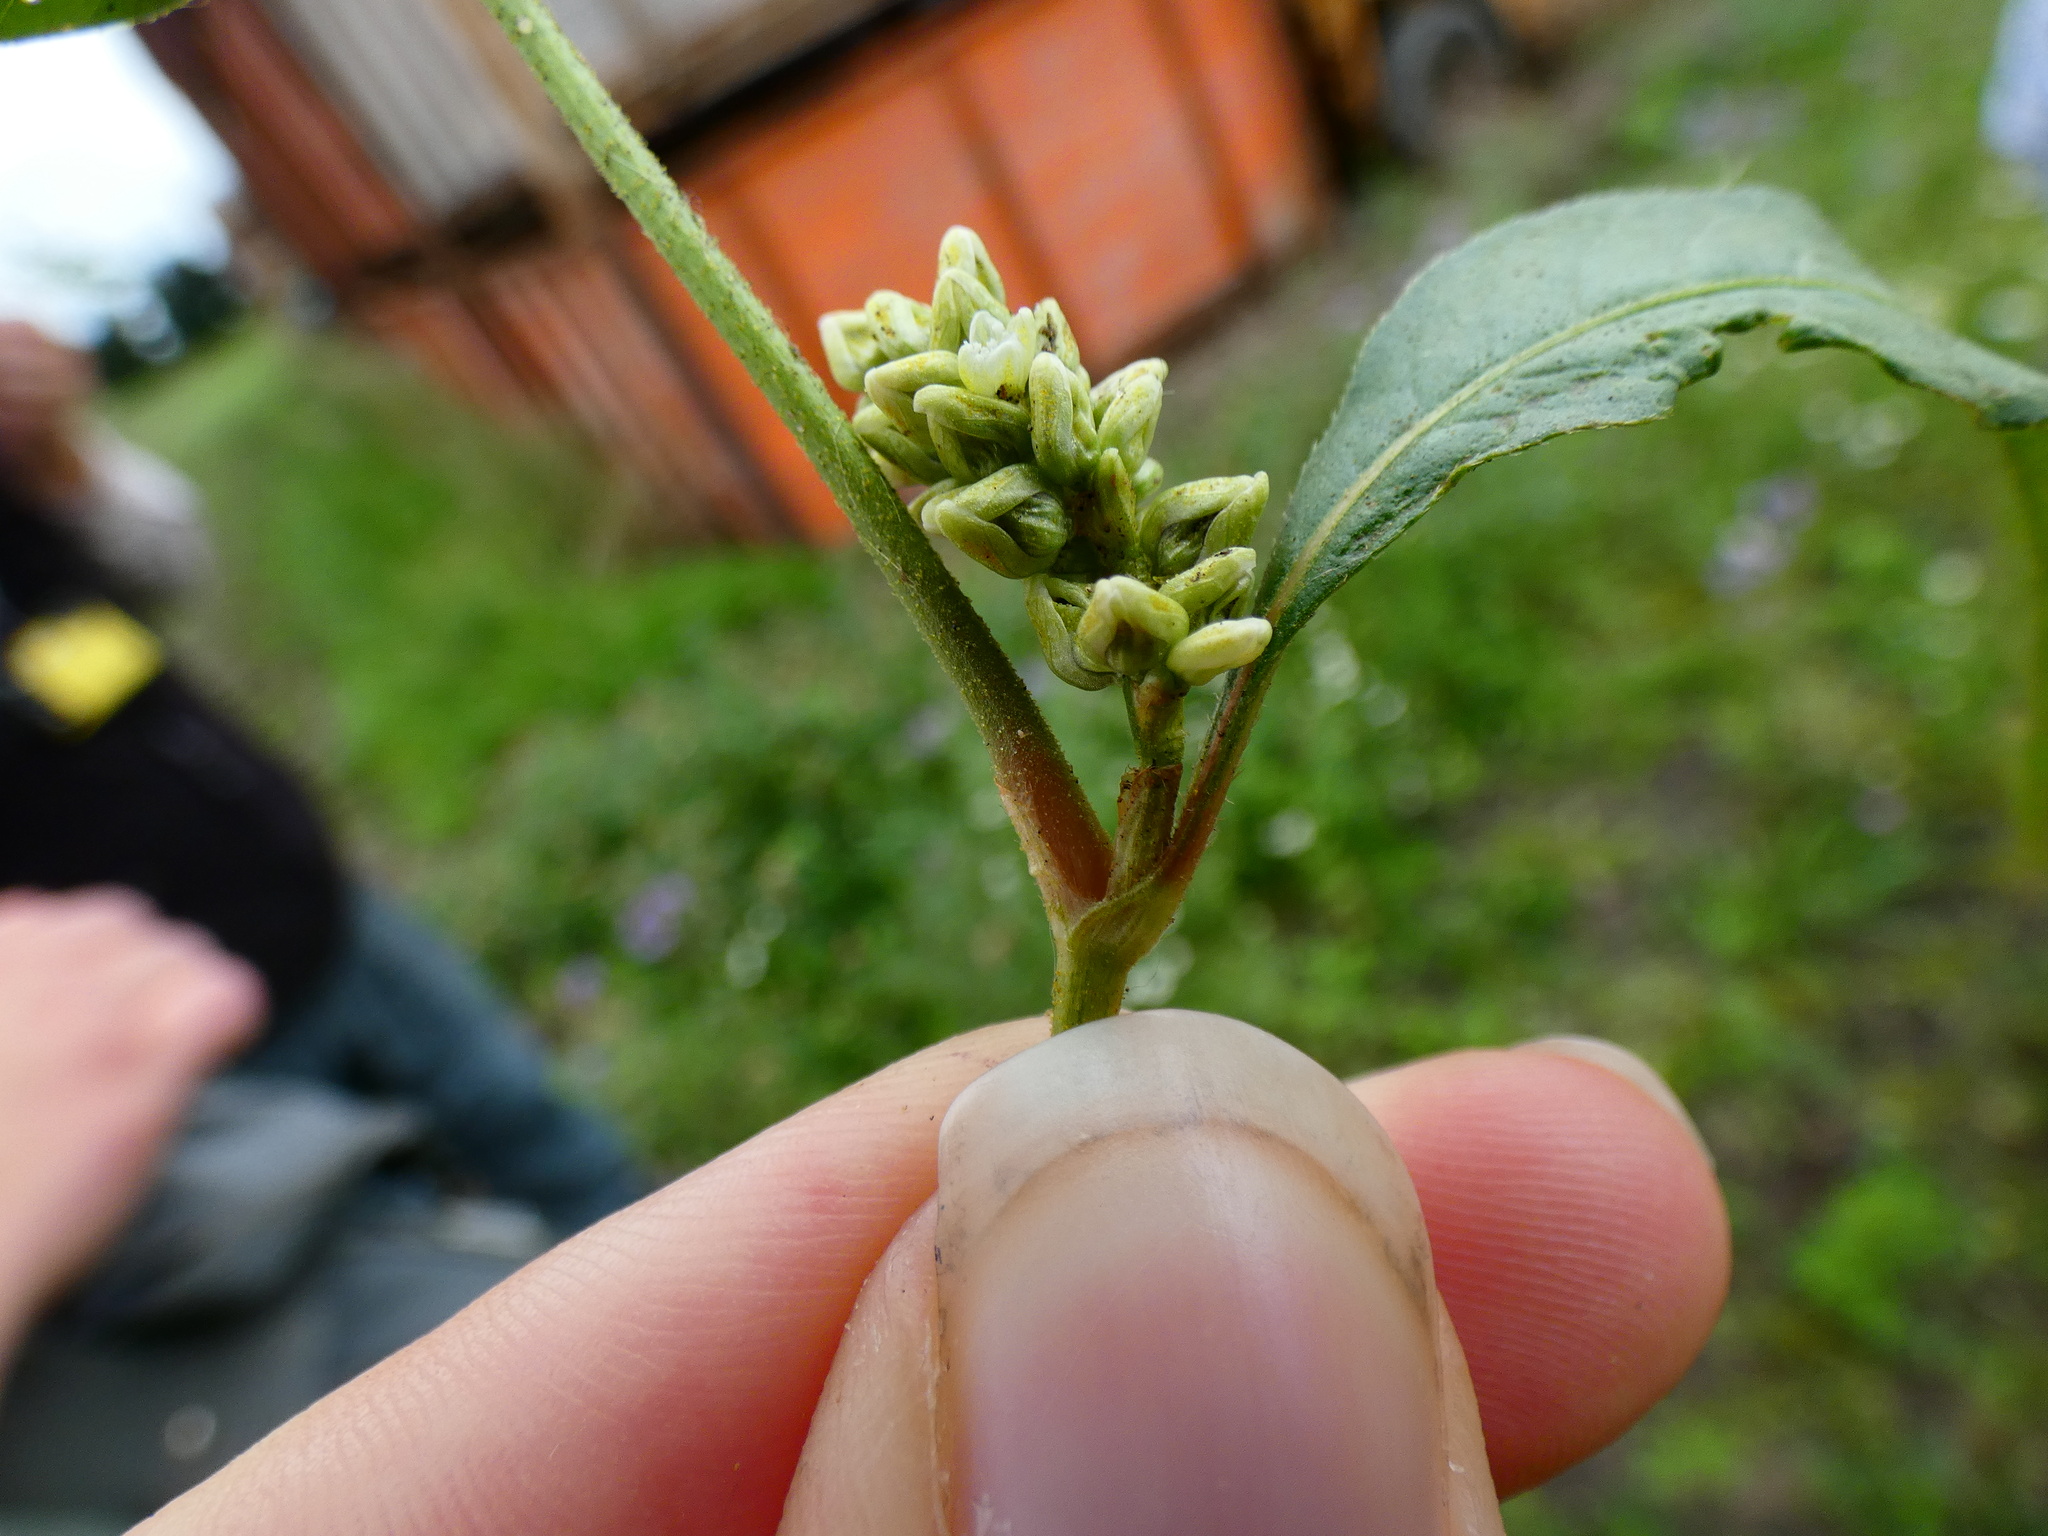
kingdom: Plantae
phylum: Tracheophyta
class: Magnoliopsida
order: Caryophyllales
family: Polygonaceae
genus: Persicaria
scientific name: Persicaria lapathifolia
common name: Curlytop knotweed
